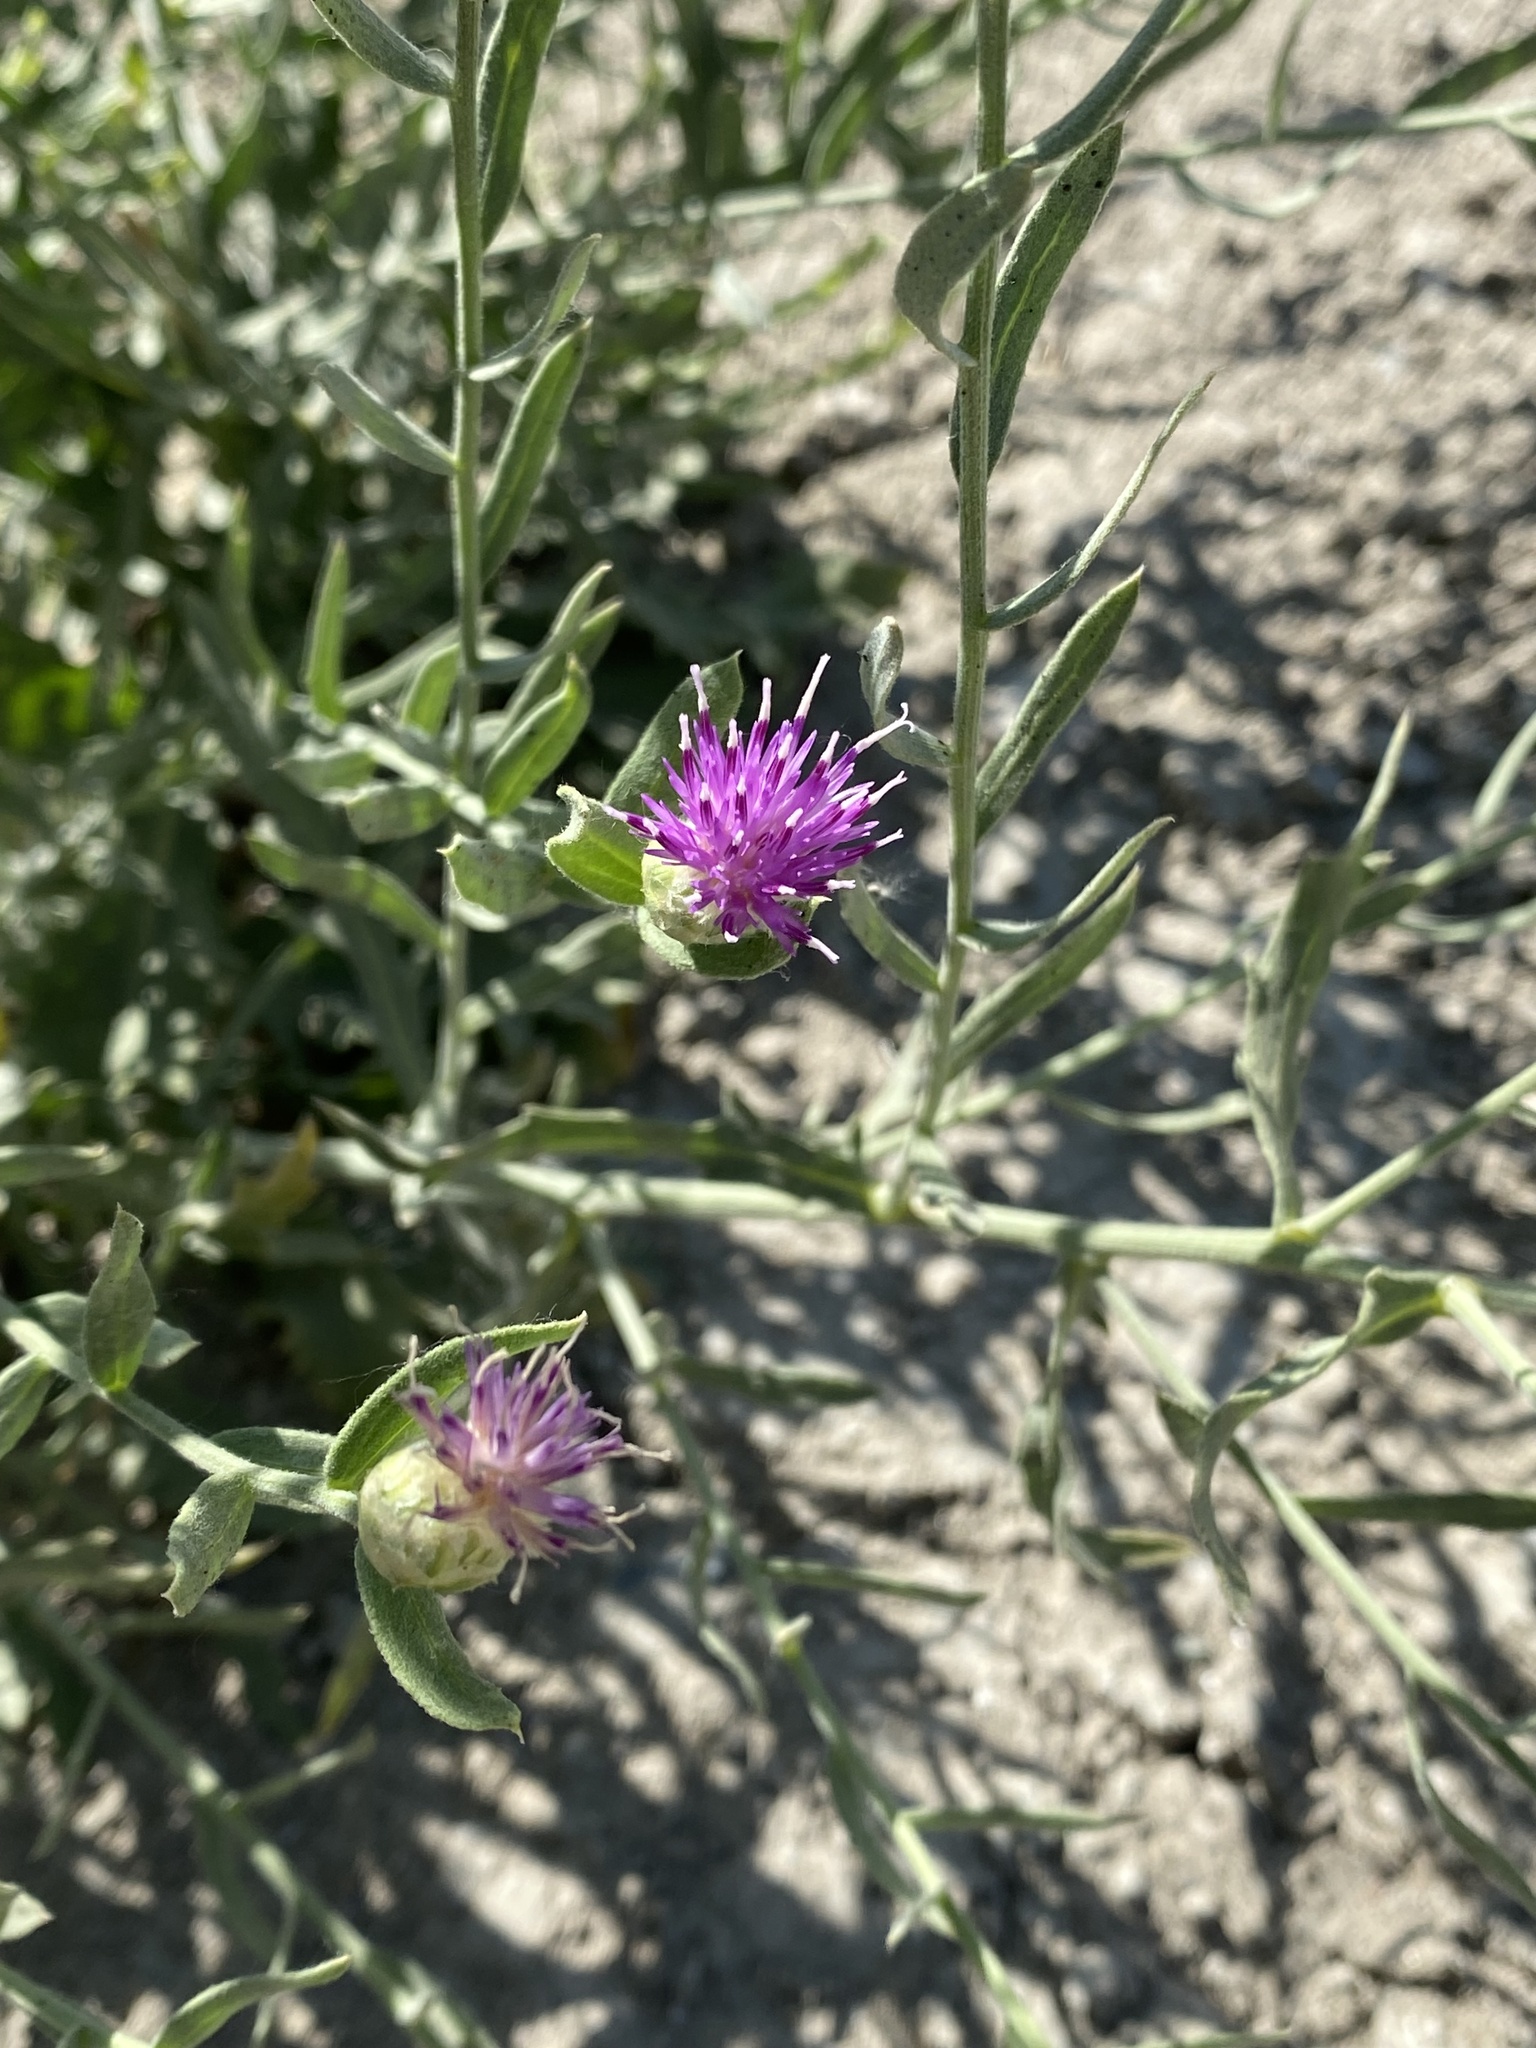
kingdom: Plantae
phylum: Tracheophyta
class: Magnoliopsida
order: Asterales
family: Asteraceae
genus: Leuzea
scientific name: Leuzea repens
